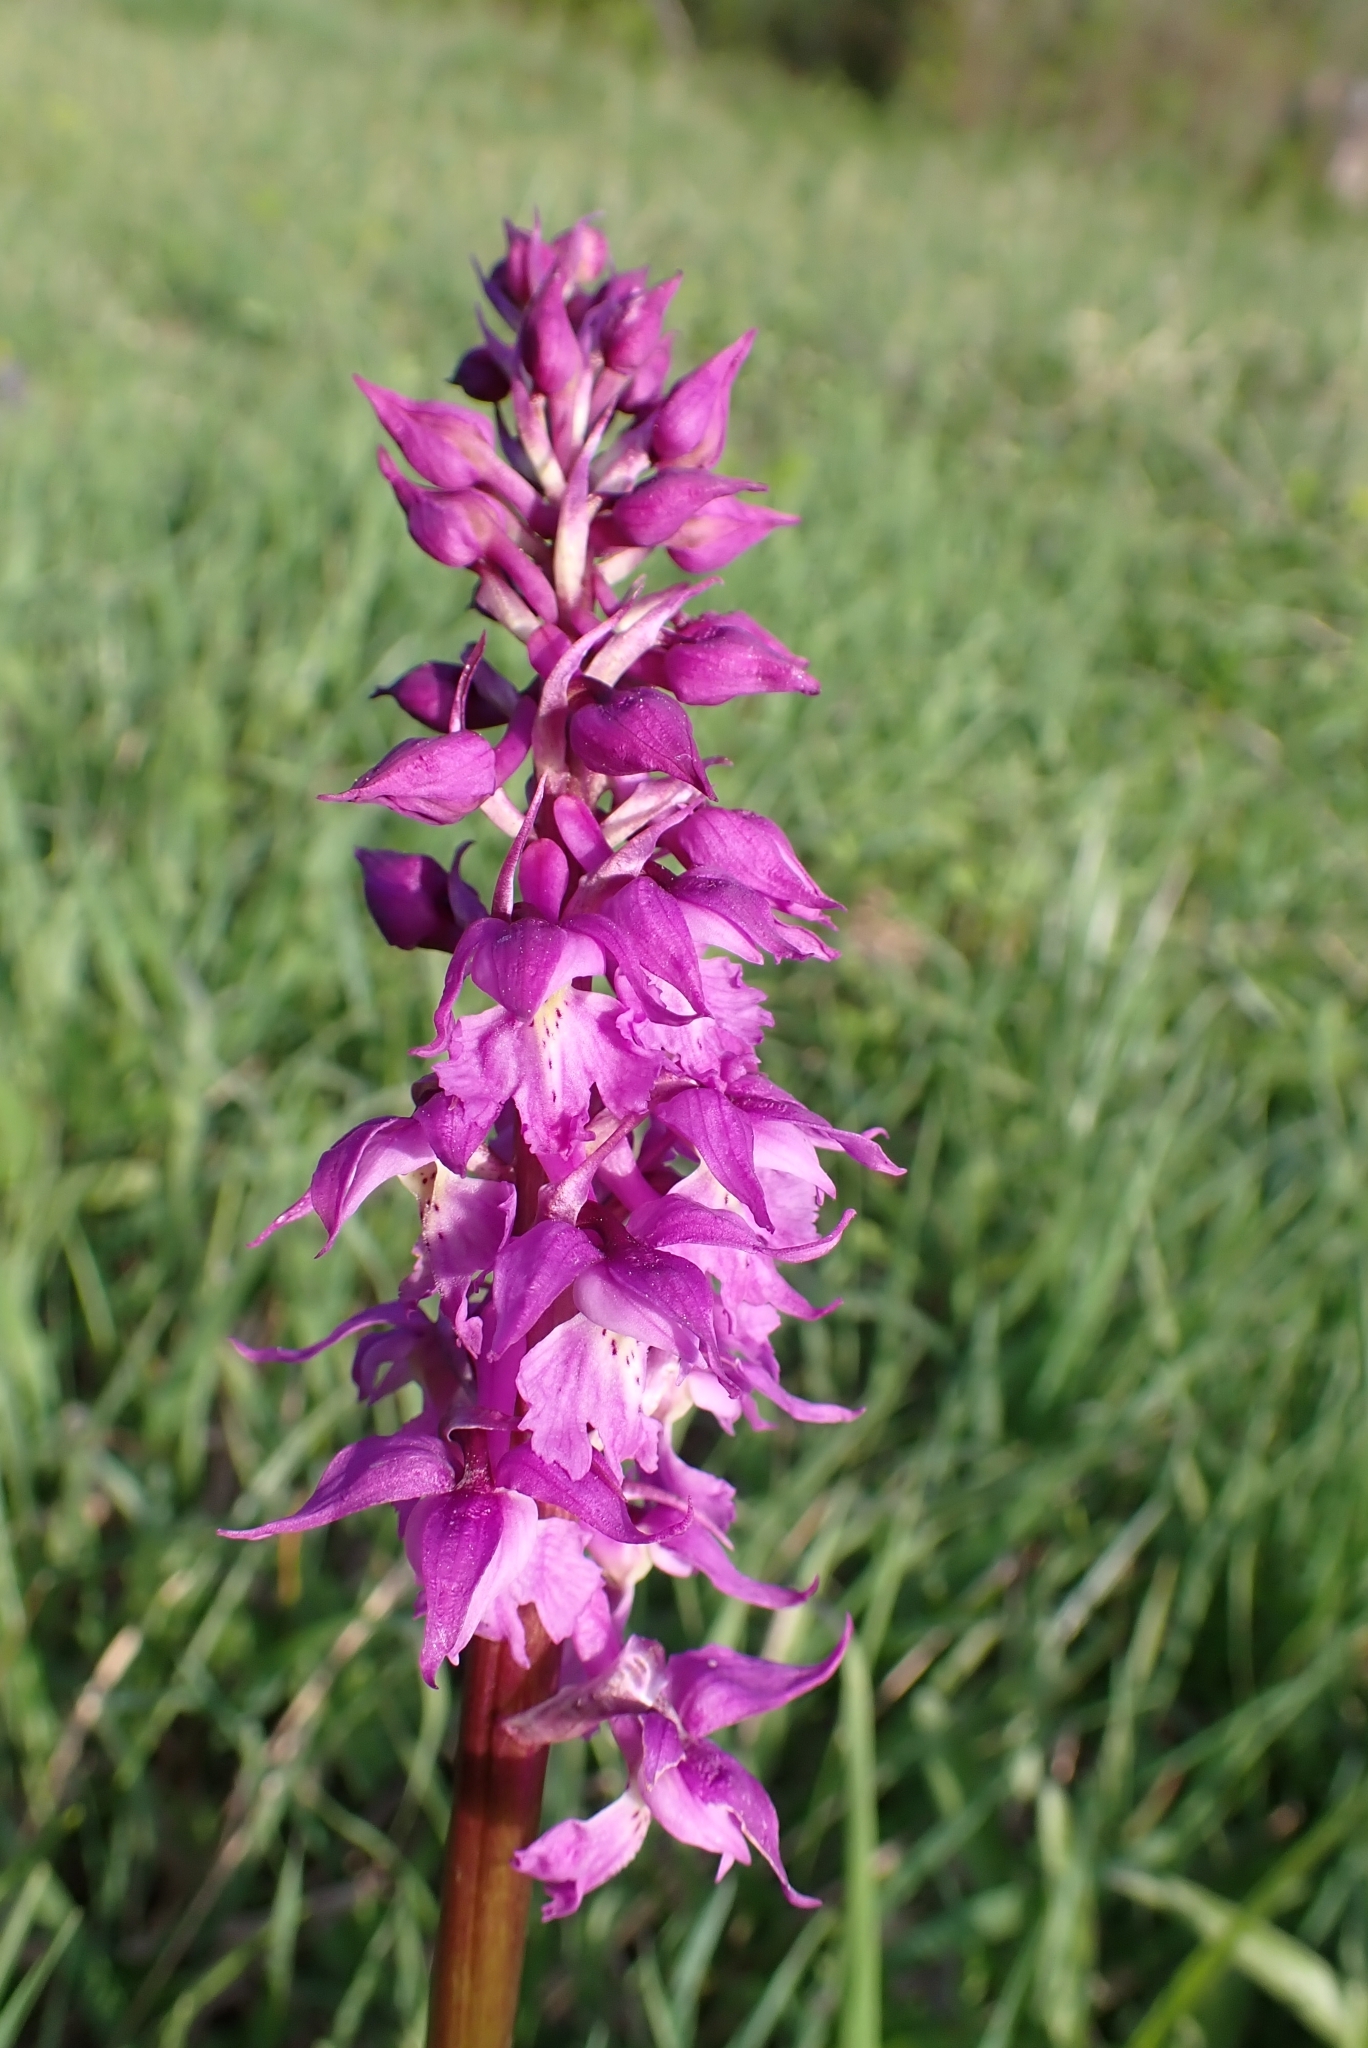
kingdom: Plantae
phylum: Tracheophyta
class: Liliopsida
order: Asparagales
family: Orchidaceae
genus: Orchis
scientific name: Orchis mascula
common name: Early-purple orchid
